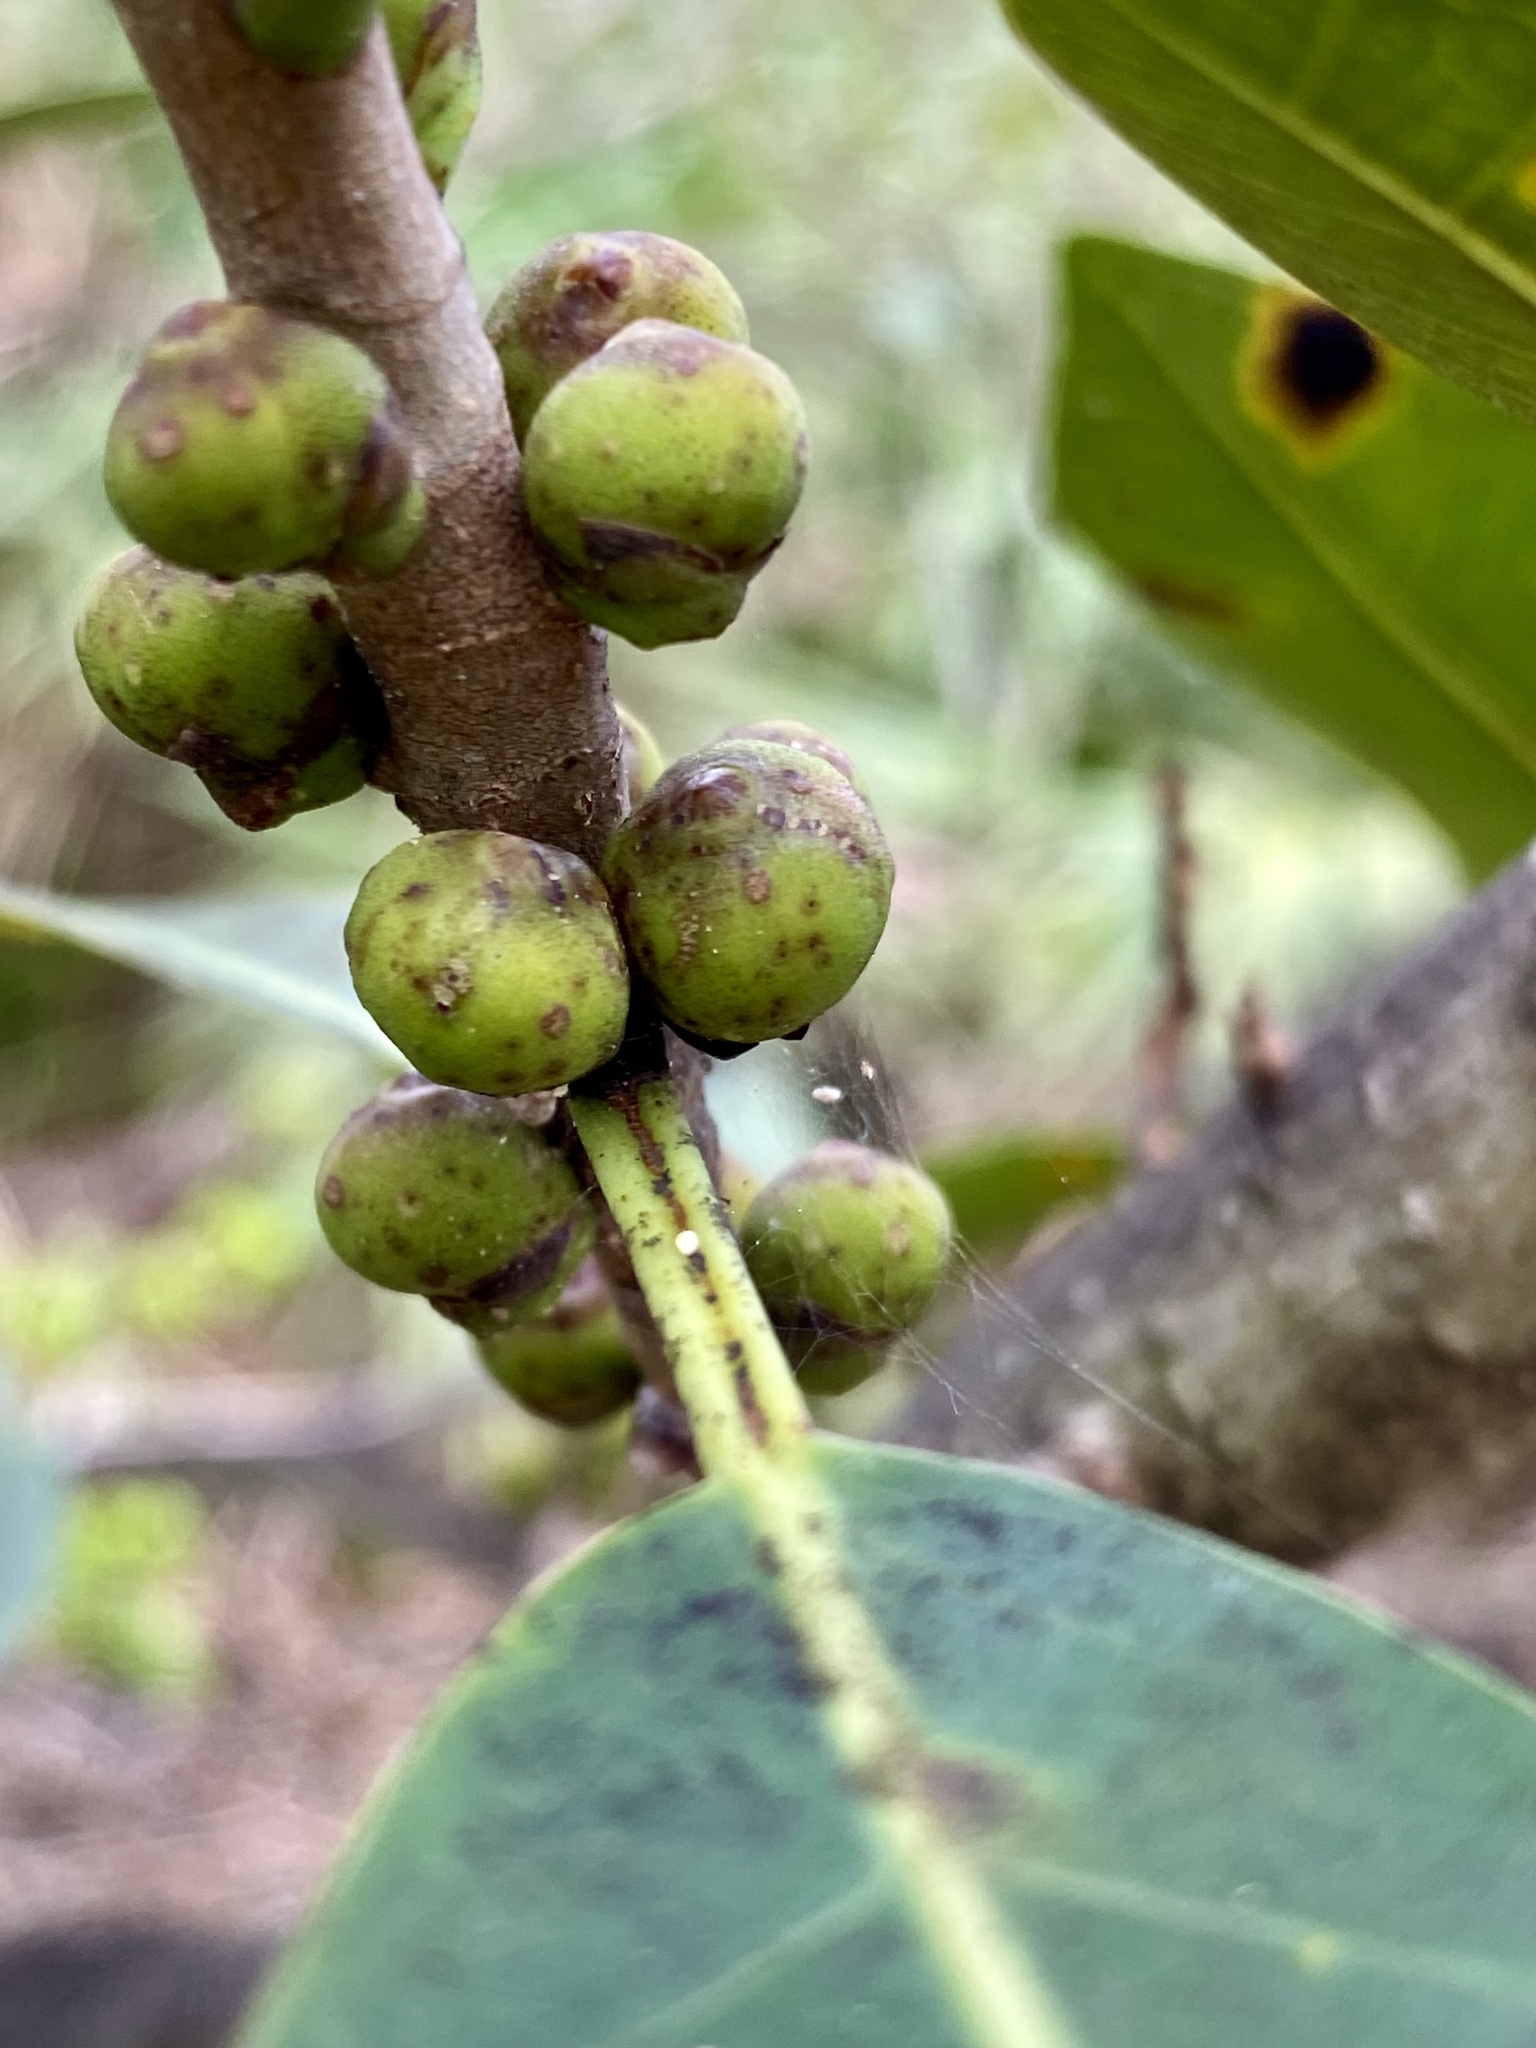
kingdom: Plantae
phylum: Tracheophyta
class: Magnoliopsida
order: Rosales
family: Moraceae
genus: Ficus
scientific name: Ficus aurea
